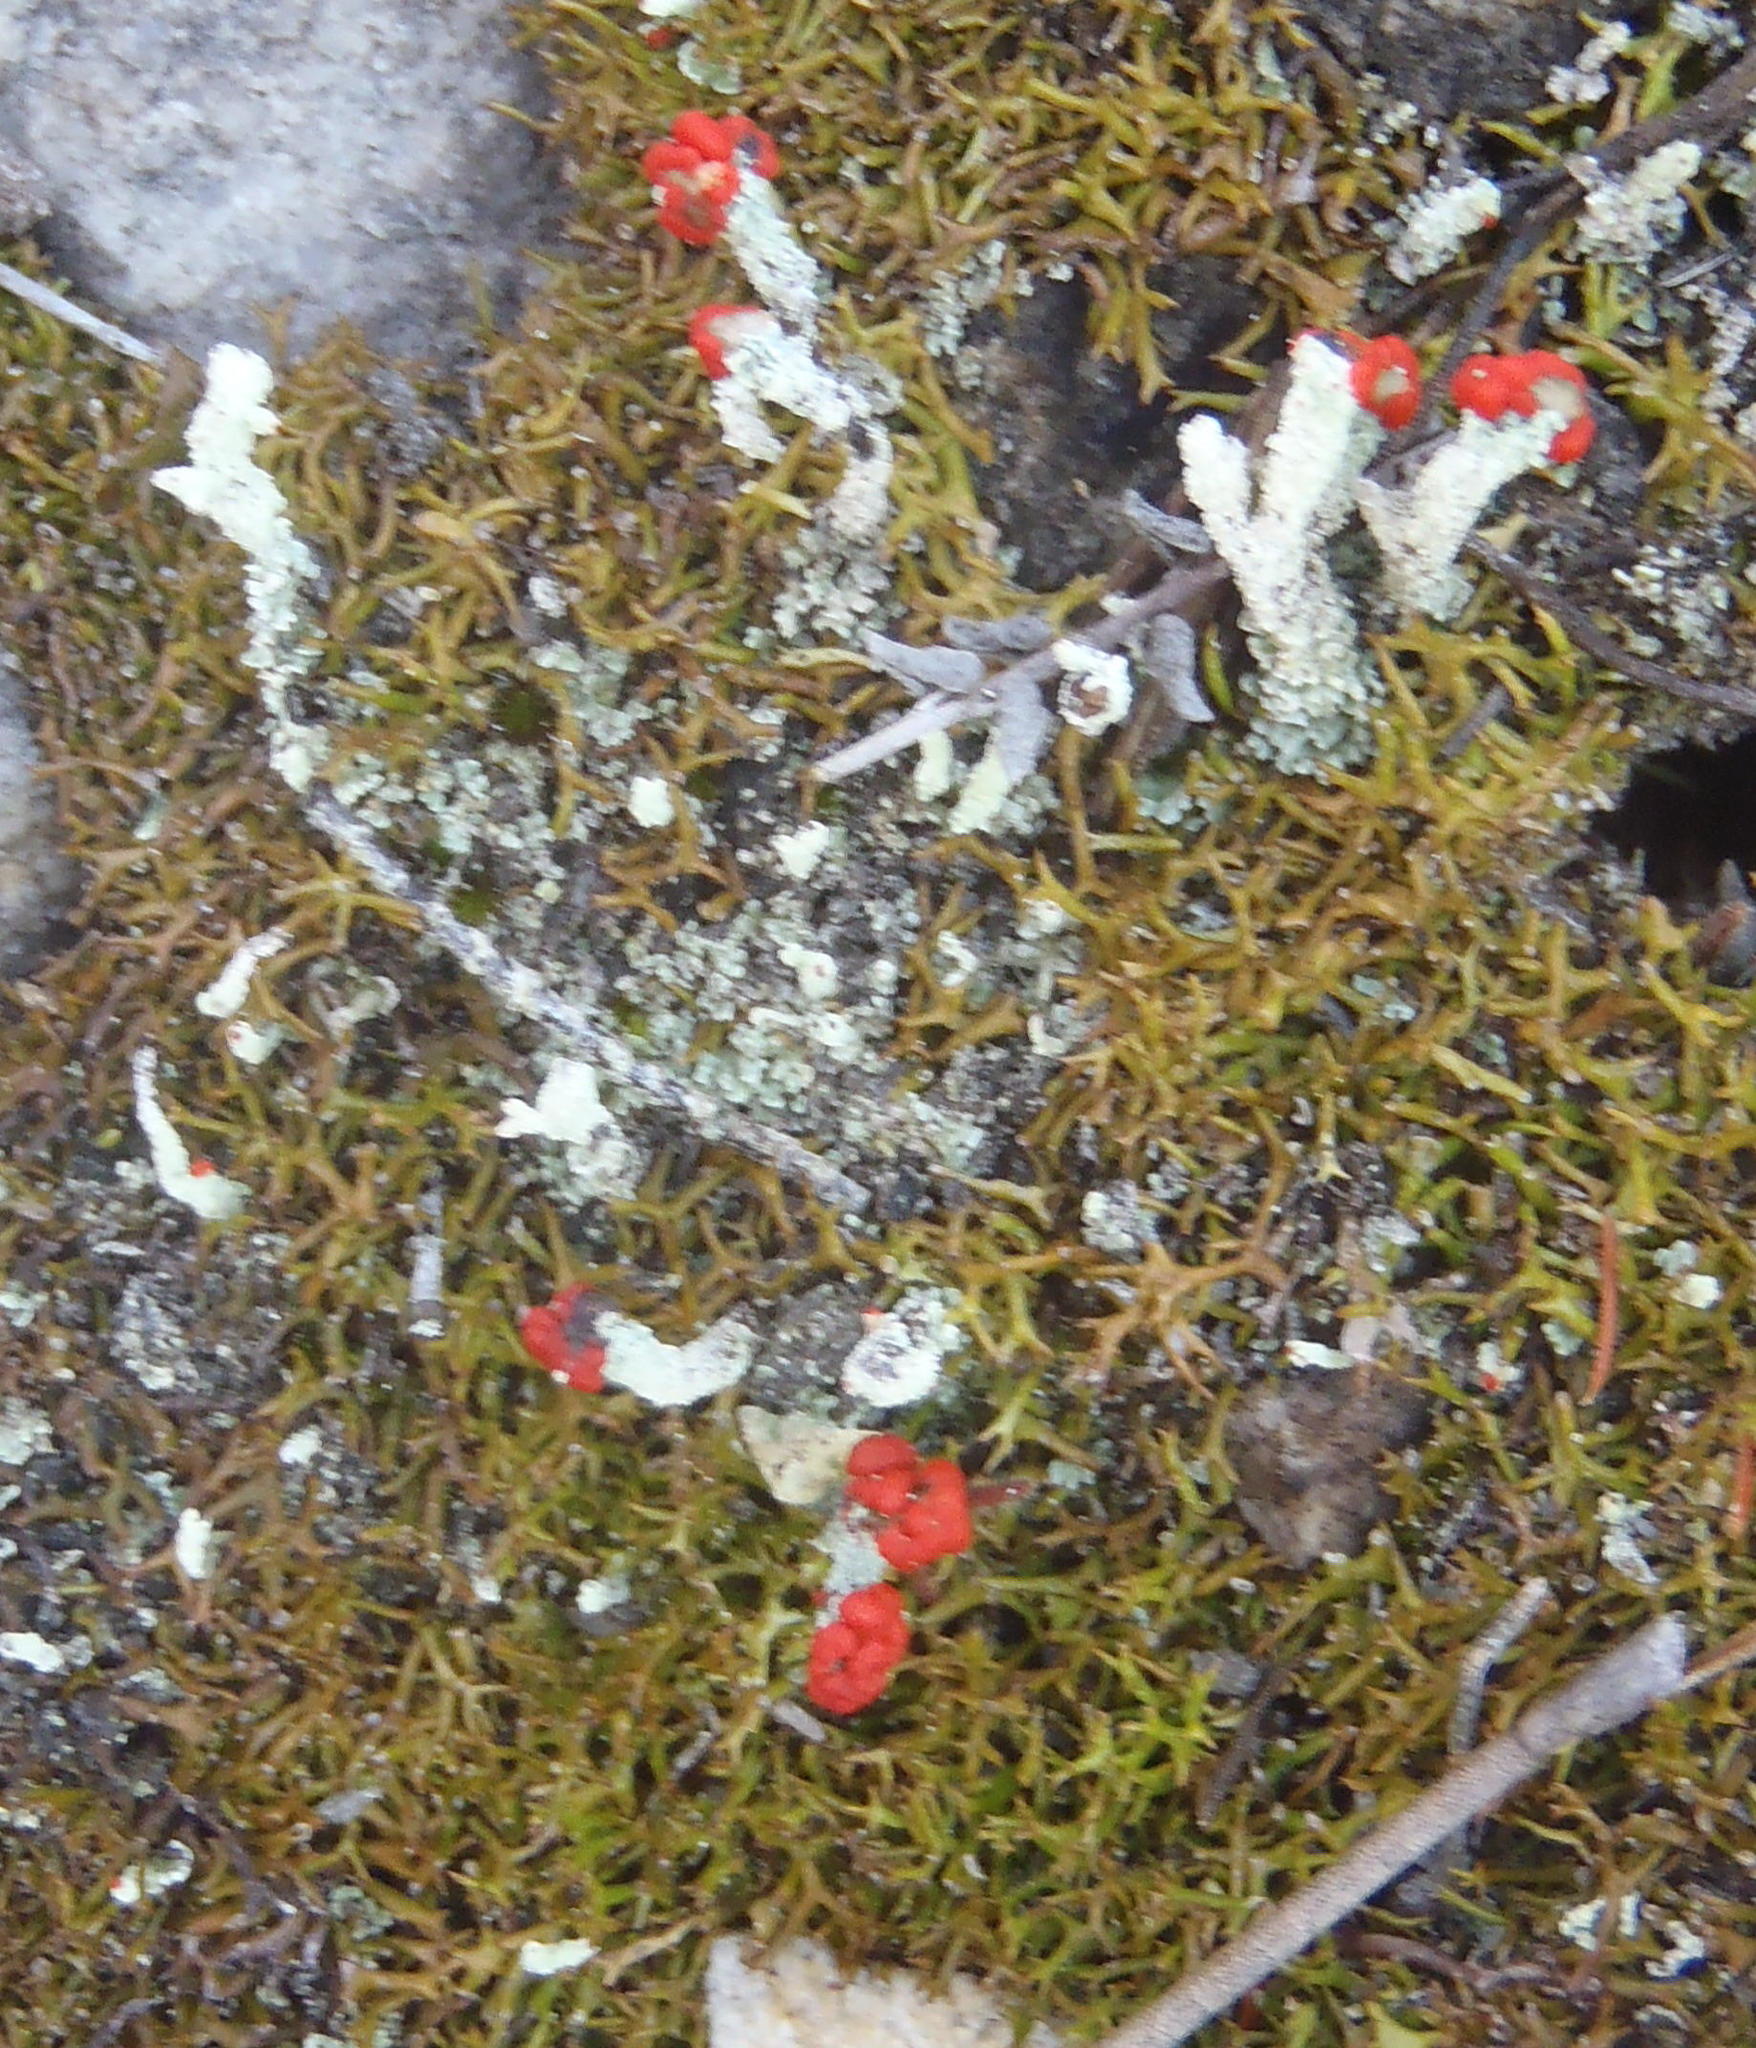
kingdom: Fungi
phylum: Ascomycota
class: Lecanoromycetes
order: Lecanorales
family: Cladoniaceae
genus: Cladonia
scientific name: Cladonia didyma
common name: Southern soldiers
